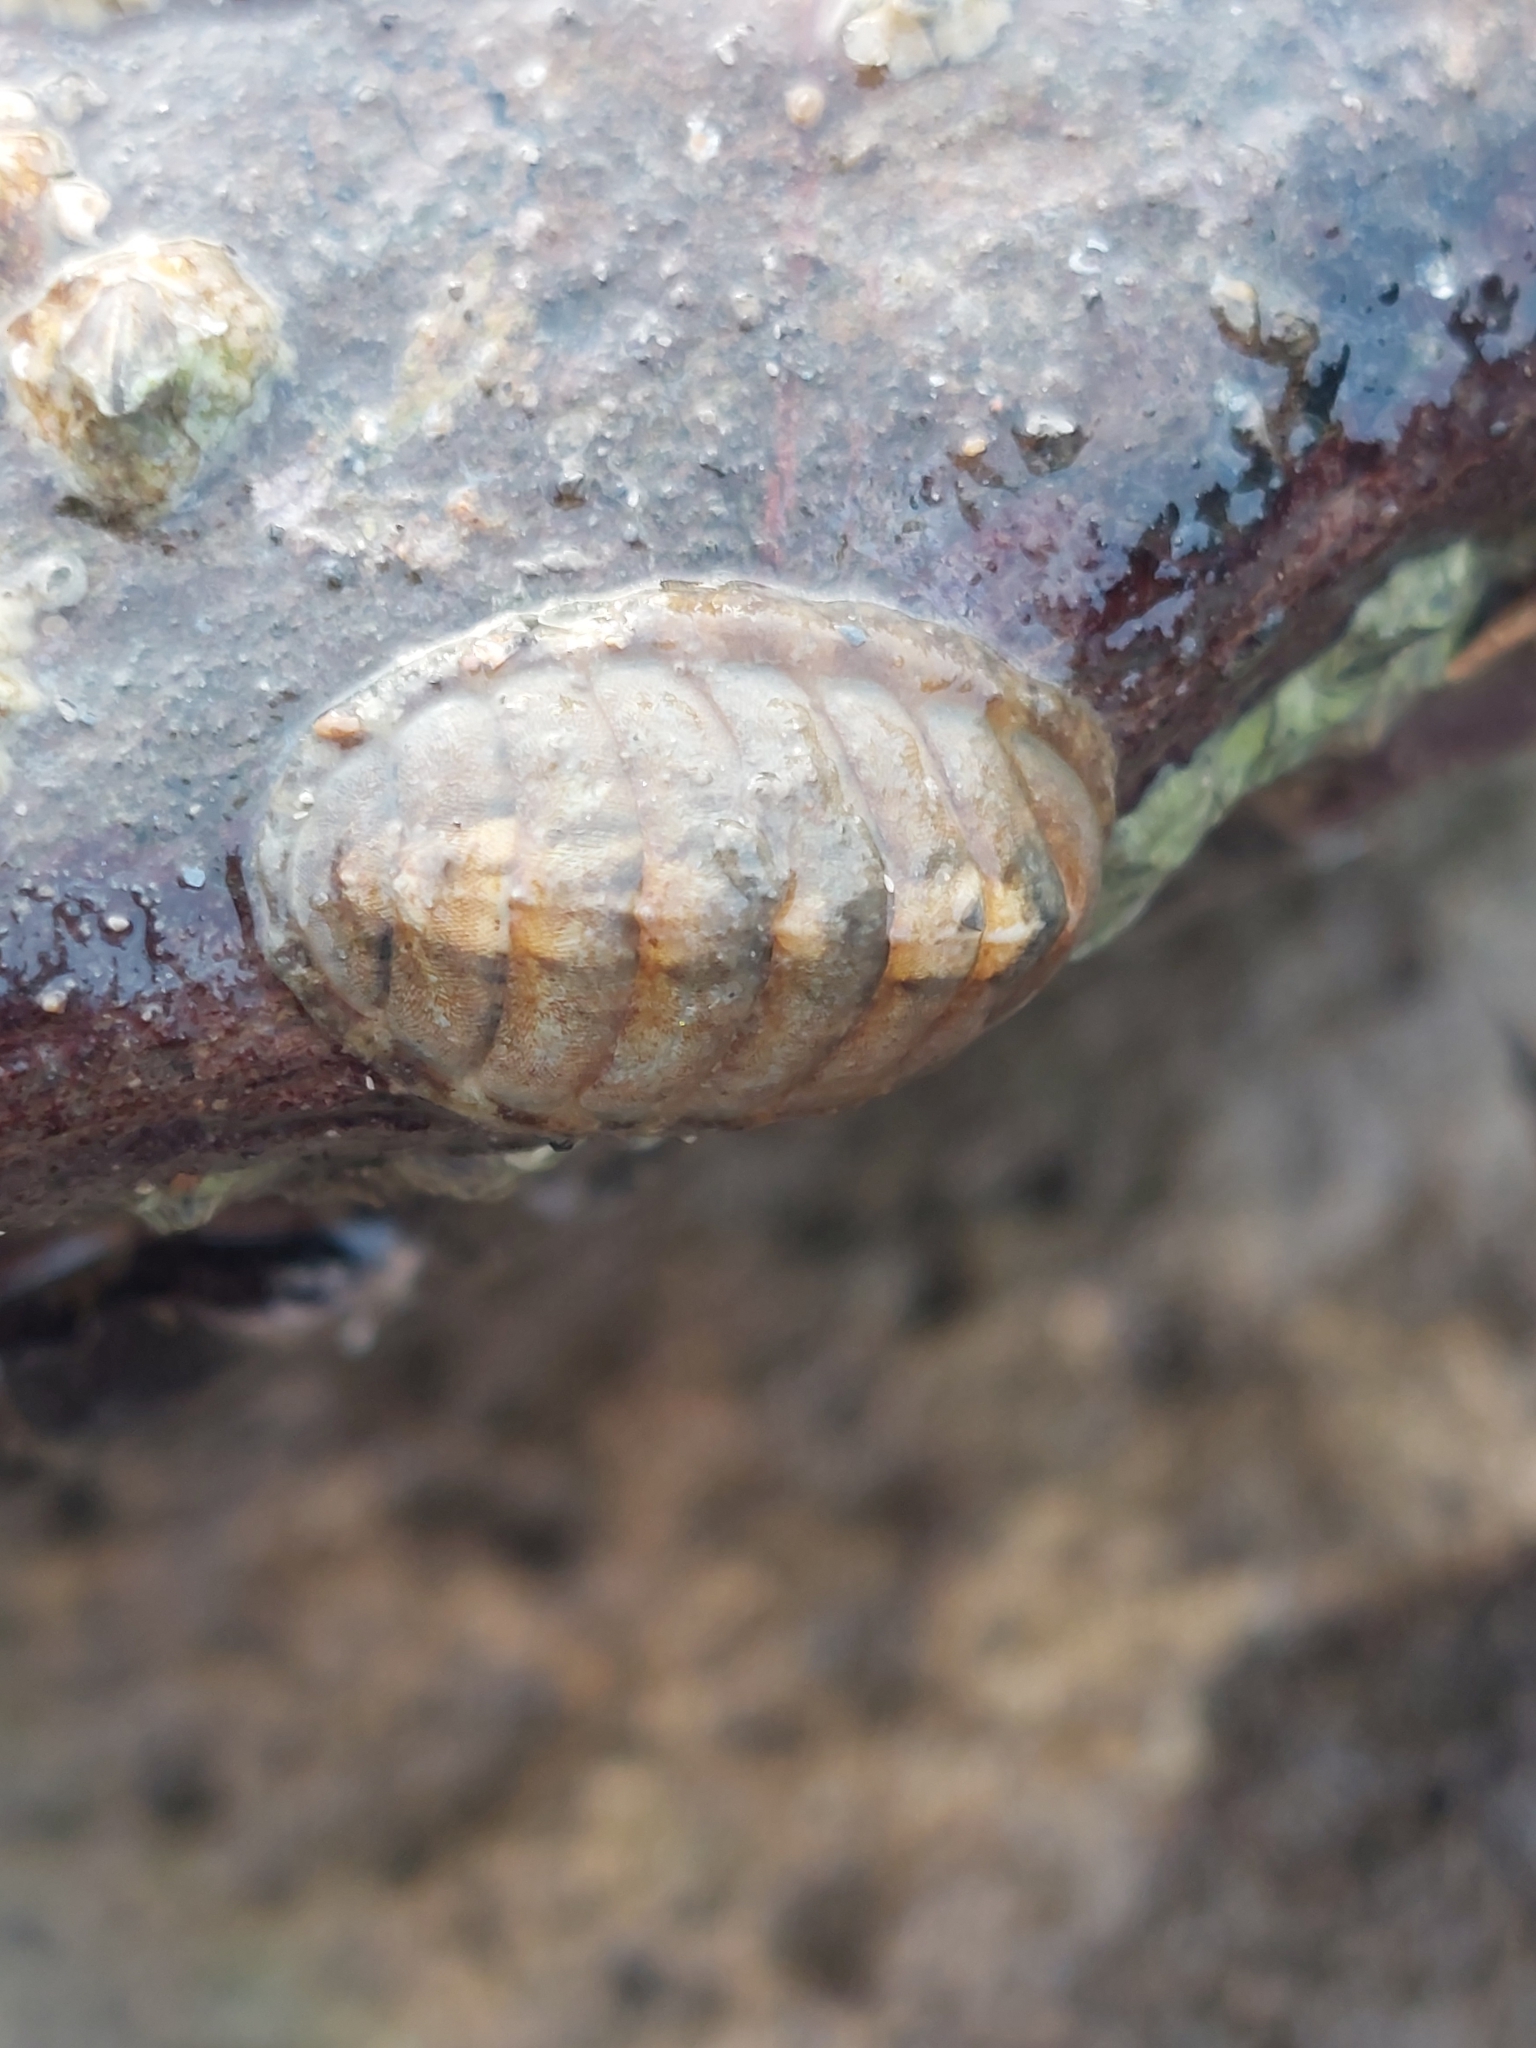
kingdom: Animalia
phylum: Mollusca
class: Polyplacophora
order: Chitonida
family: Tonicellidae
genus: Lepidochitona
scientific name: Lepidochitona cinerea
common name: Cinereous chiton
